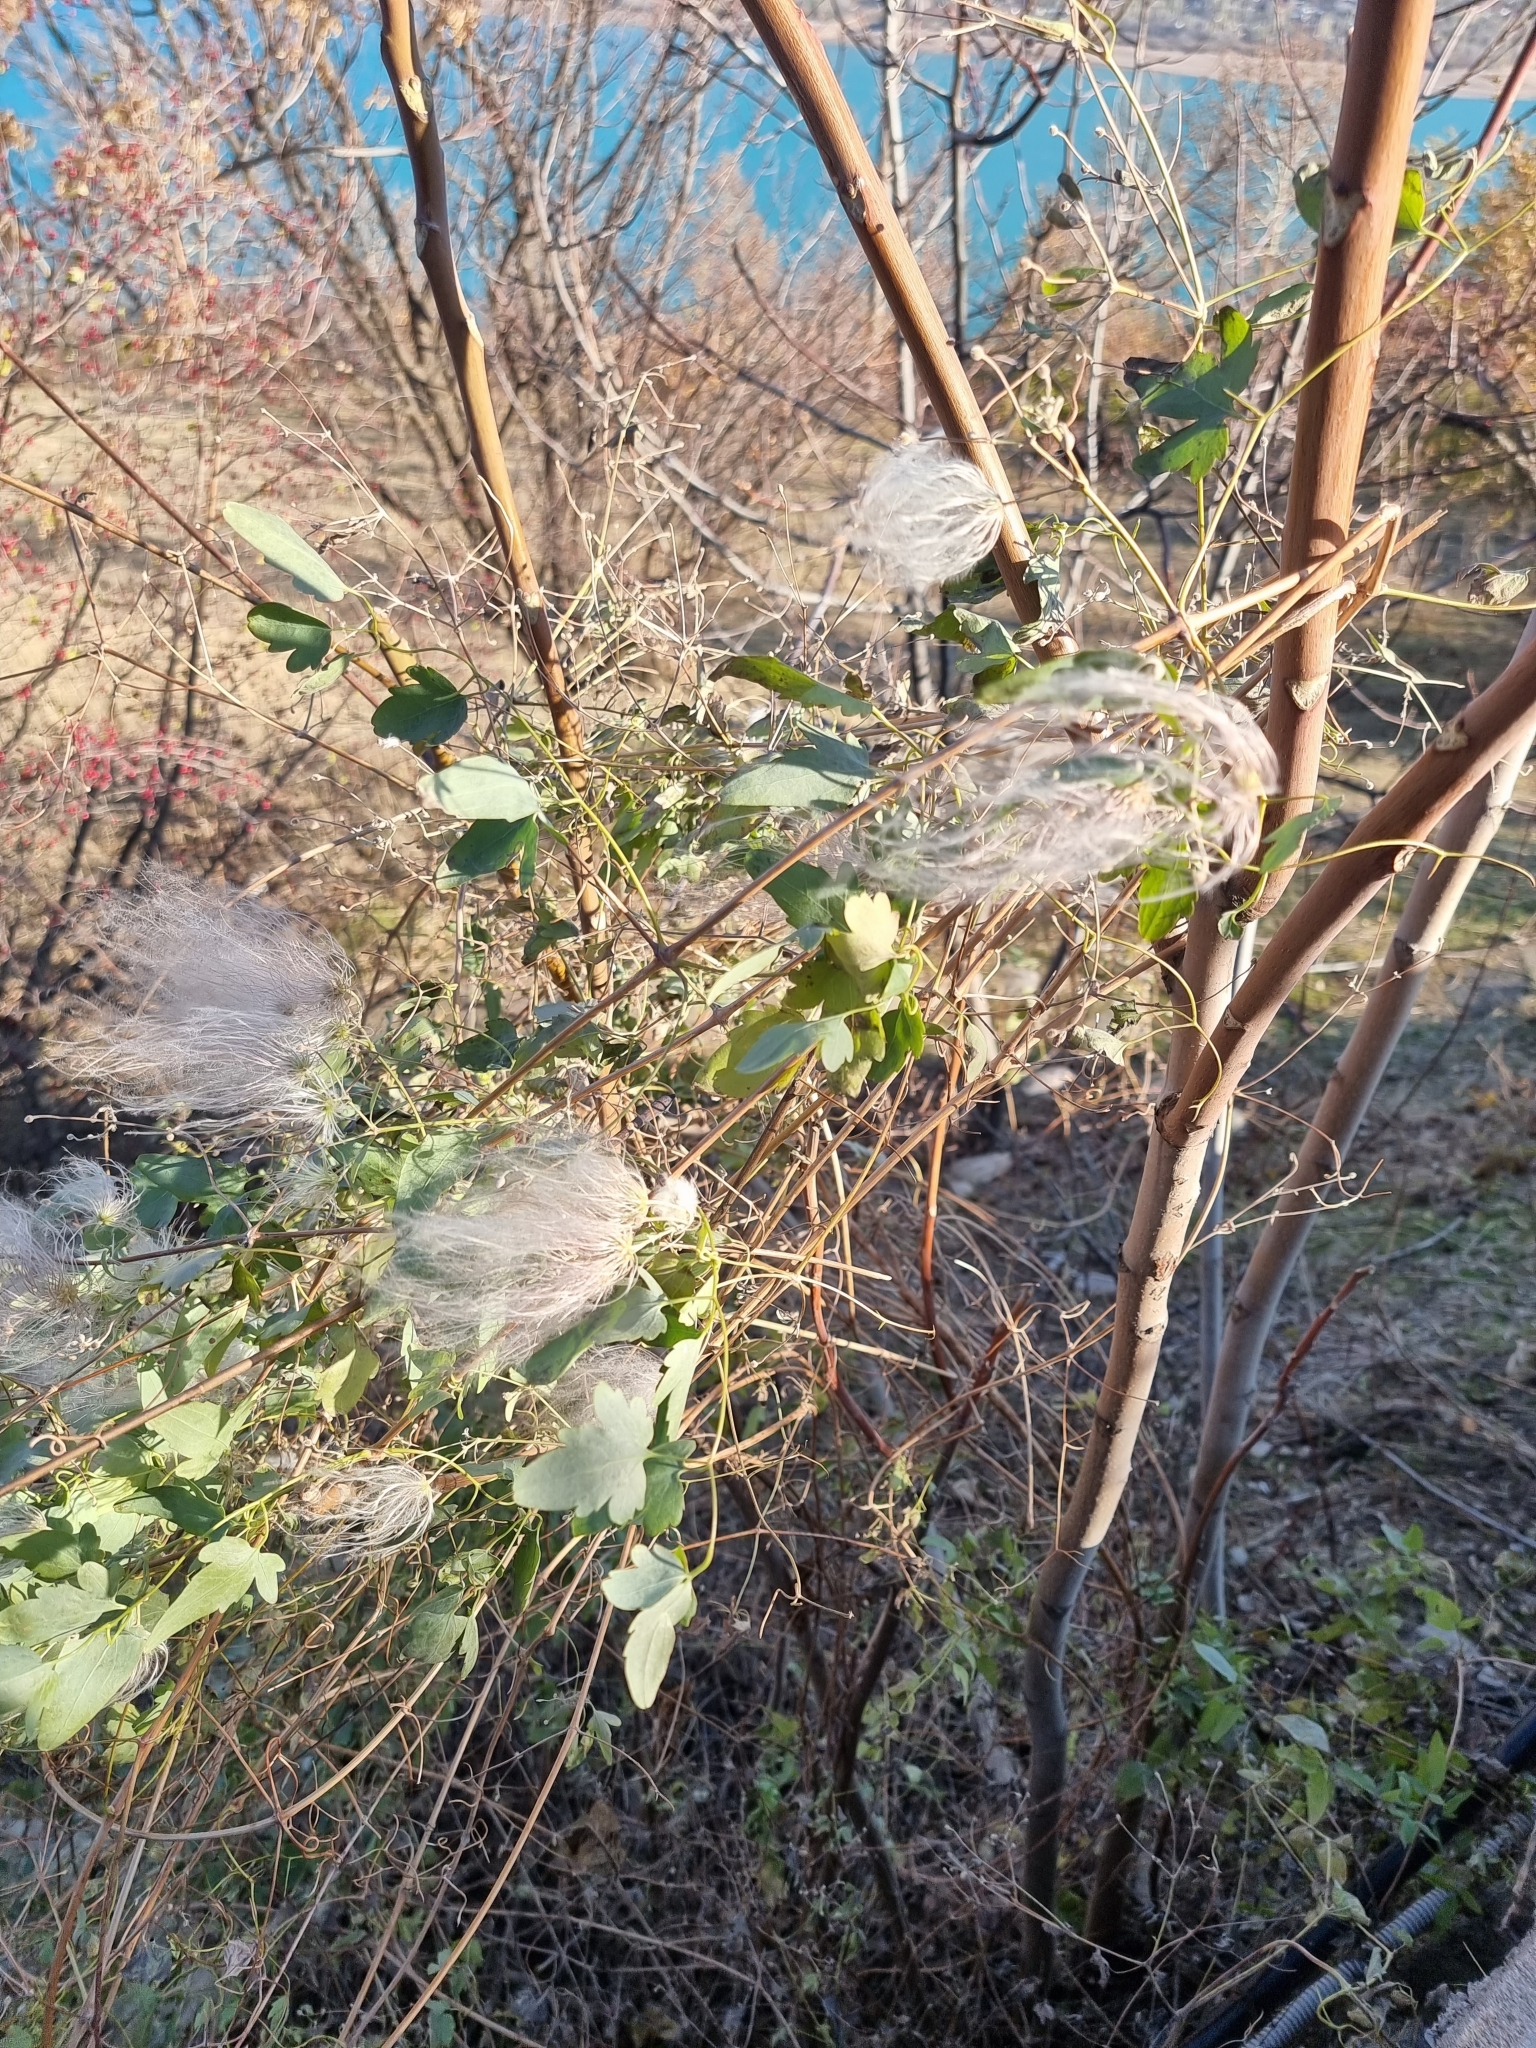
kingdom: Plantae
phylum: Tracheophyta
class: Magnoliopsida
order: Ranunculales
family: Ranunculaceae
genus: Clematis
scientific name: Clematis orientalis
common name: Oriental virgin's-bower
